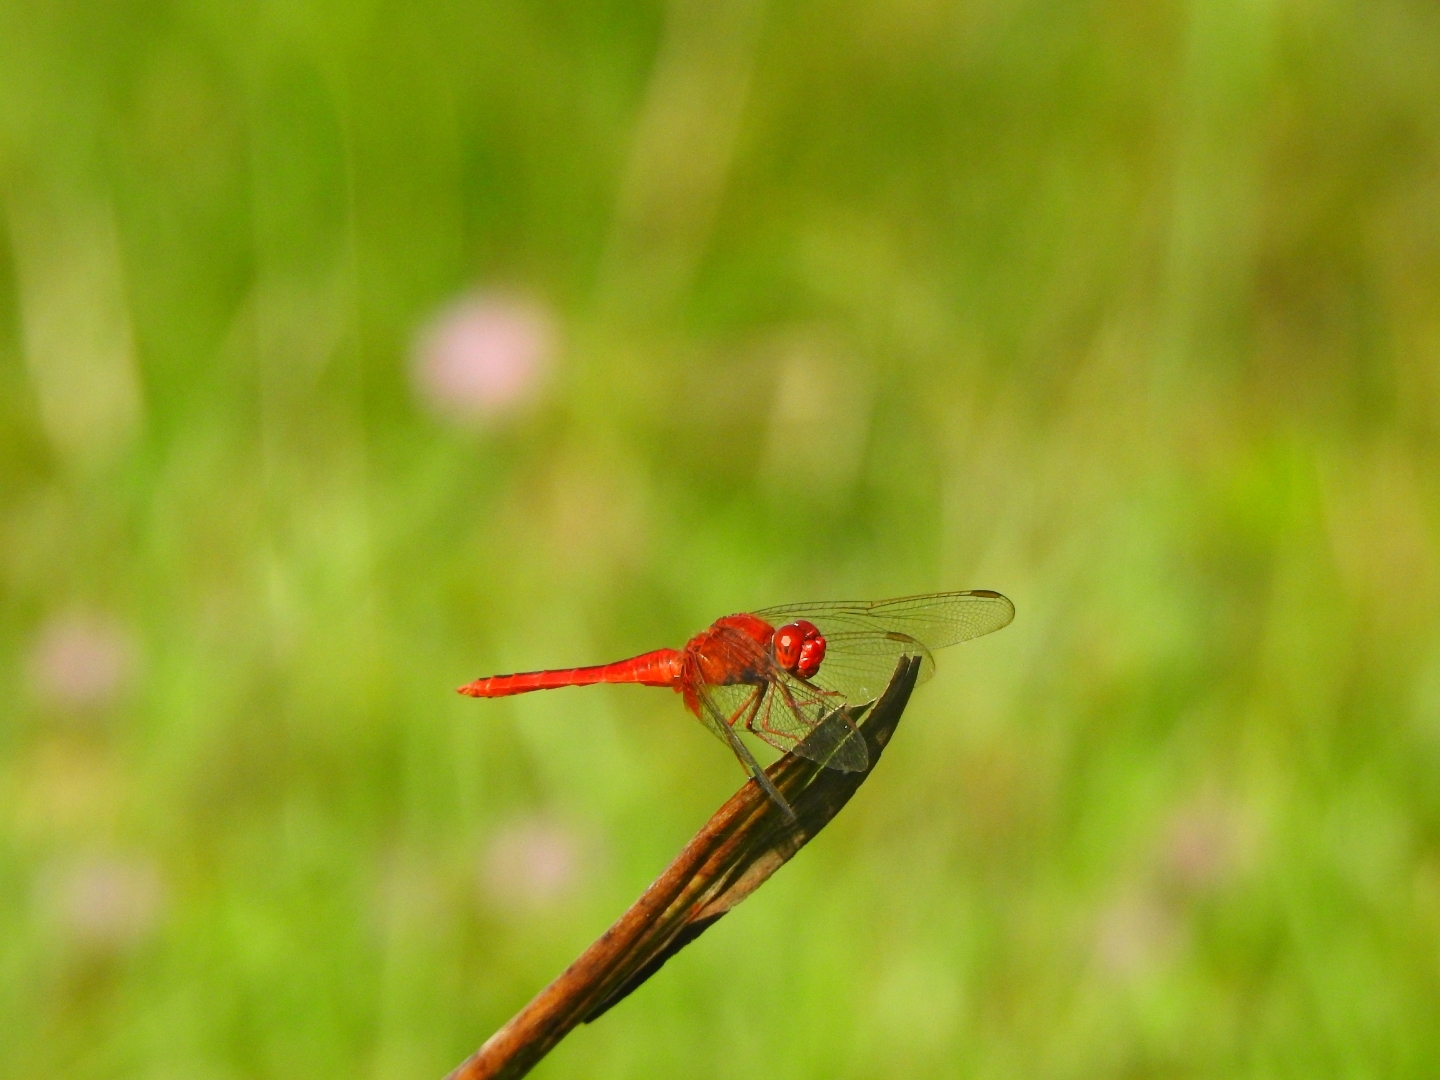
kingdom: Animalia
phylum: Arthropoda
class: Insecta
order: Odonata
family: Libellulidae
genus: Crocothemis
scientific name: Crocothemis servilia
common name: Scarlet skimmer
